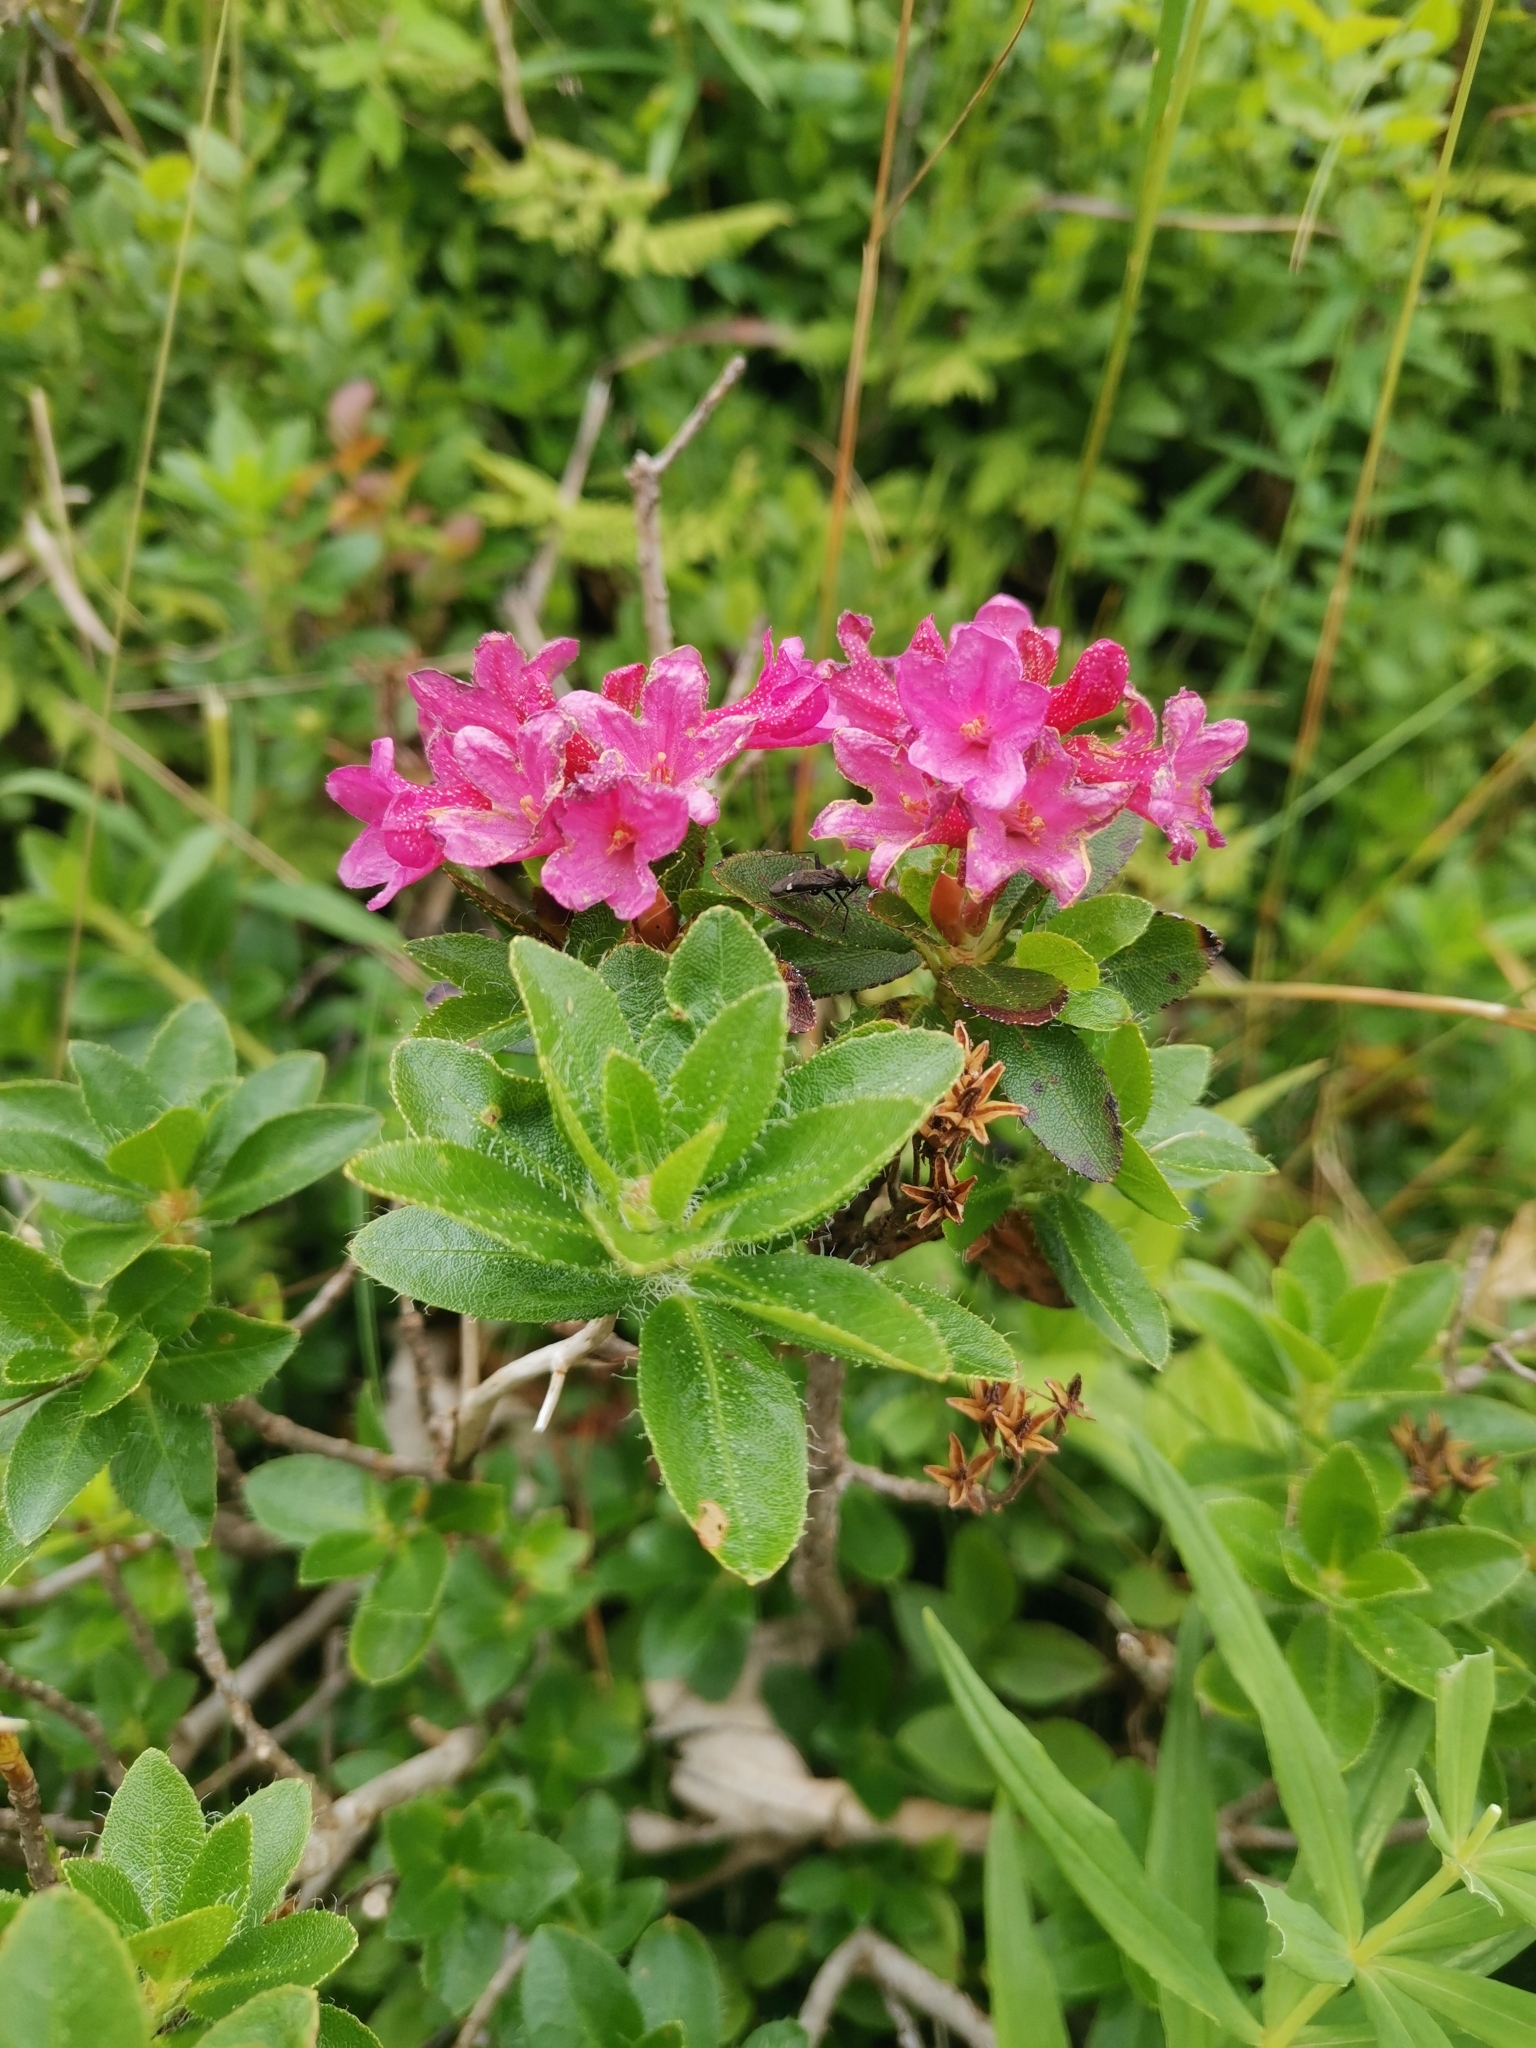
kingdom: Plantae
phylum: Tracheophyta
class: Magnoliopsida
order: Ericales
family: Ericaceae
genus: Rhododendron
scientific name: Rhododendron hirsutum
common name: Hairy alpenrose
